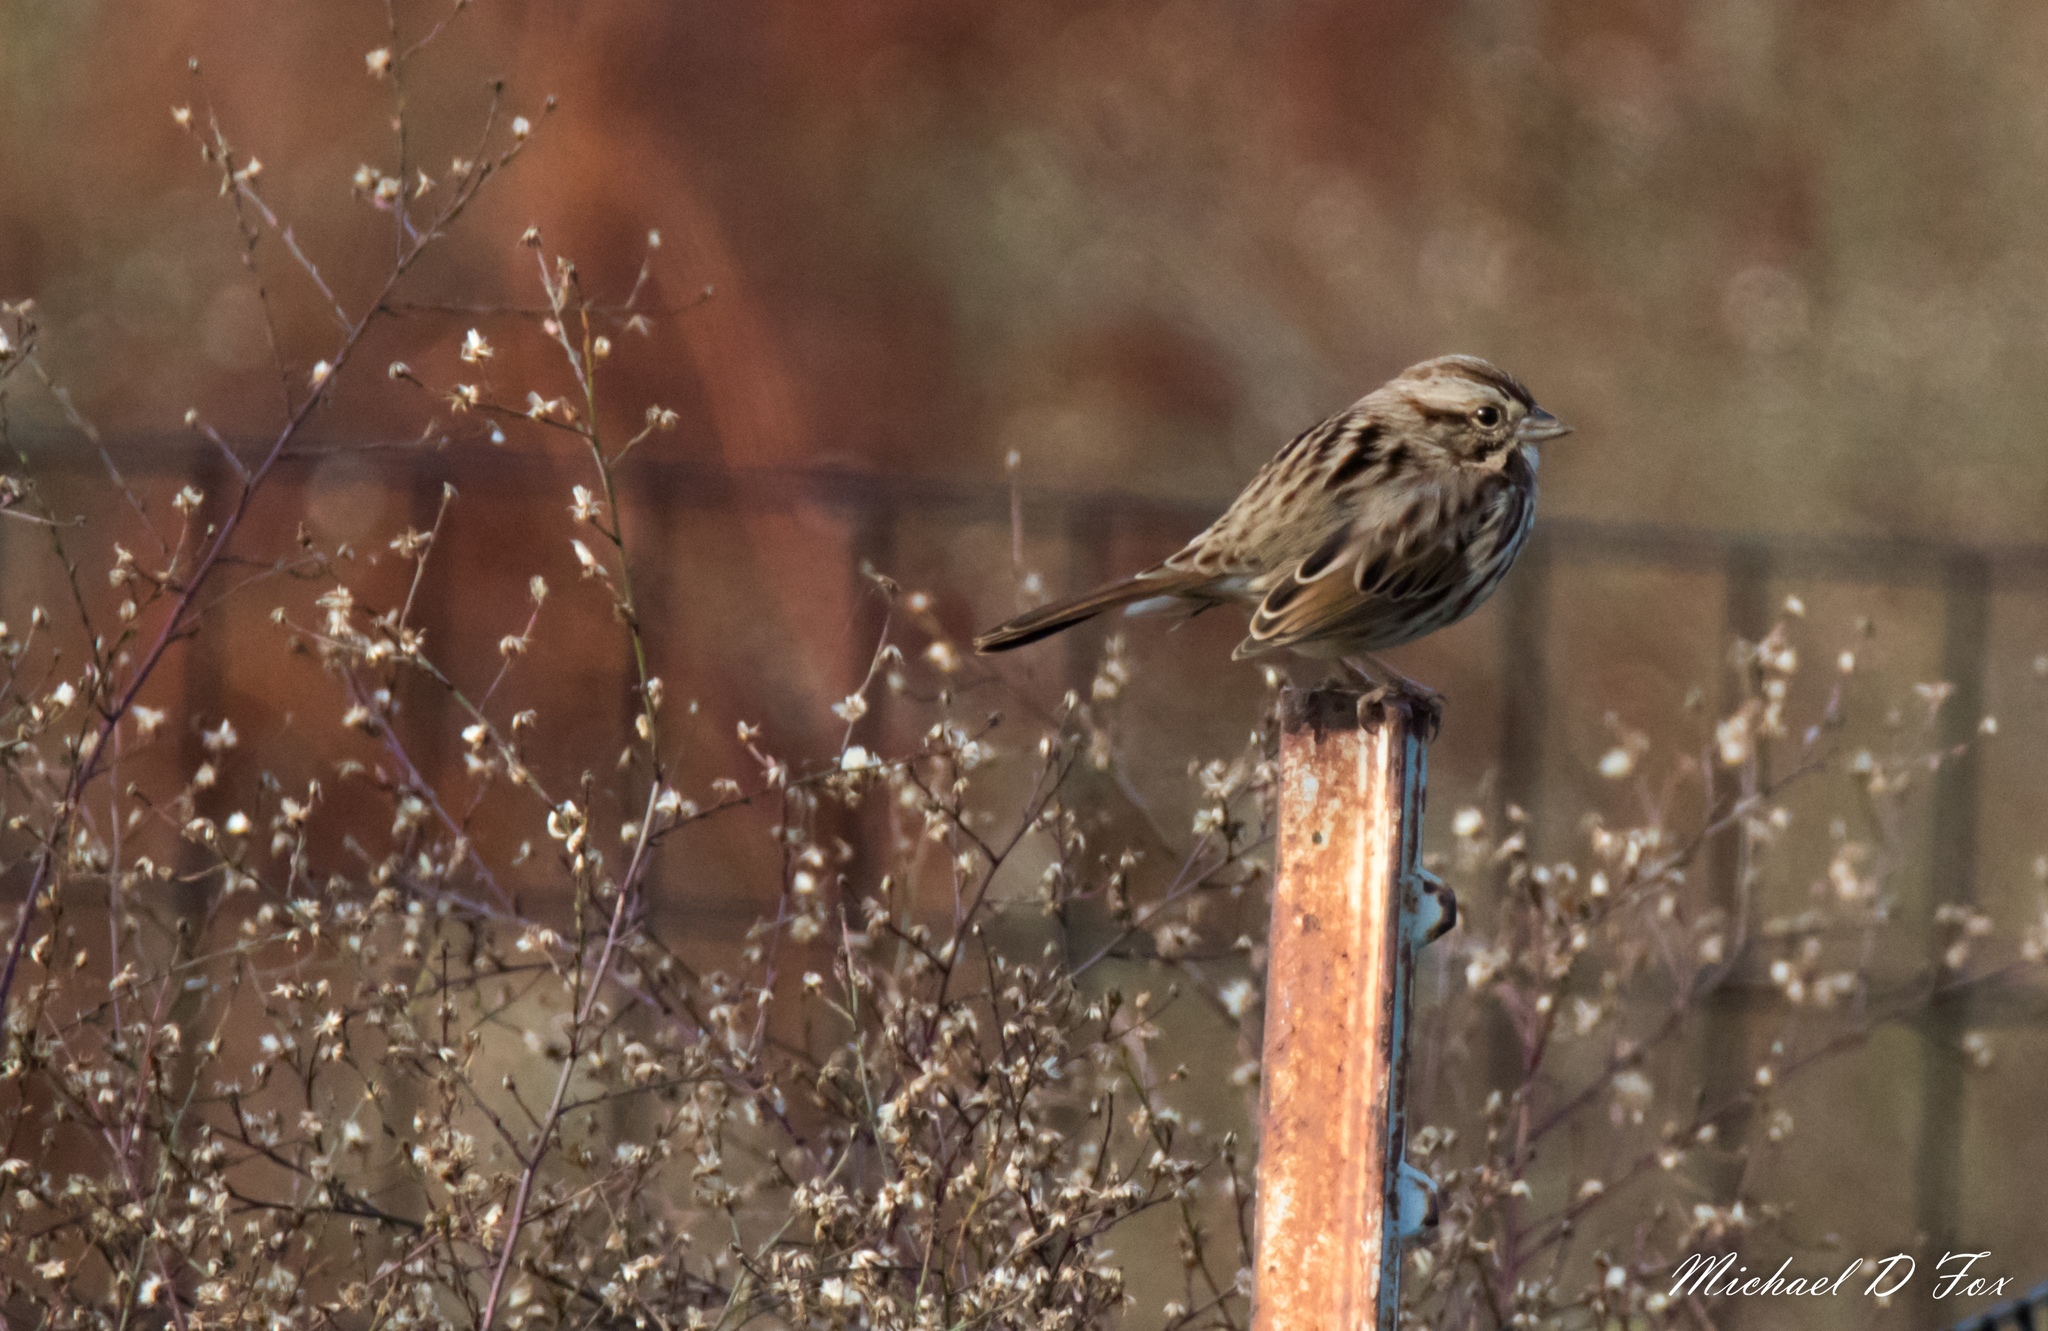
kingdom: Animalia
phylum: Chordata
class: Aves
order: Passeriformes
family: Passerellidae
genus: Melospiza
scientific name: Melospiza melodia
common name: Song sparrow
